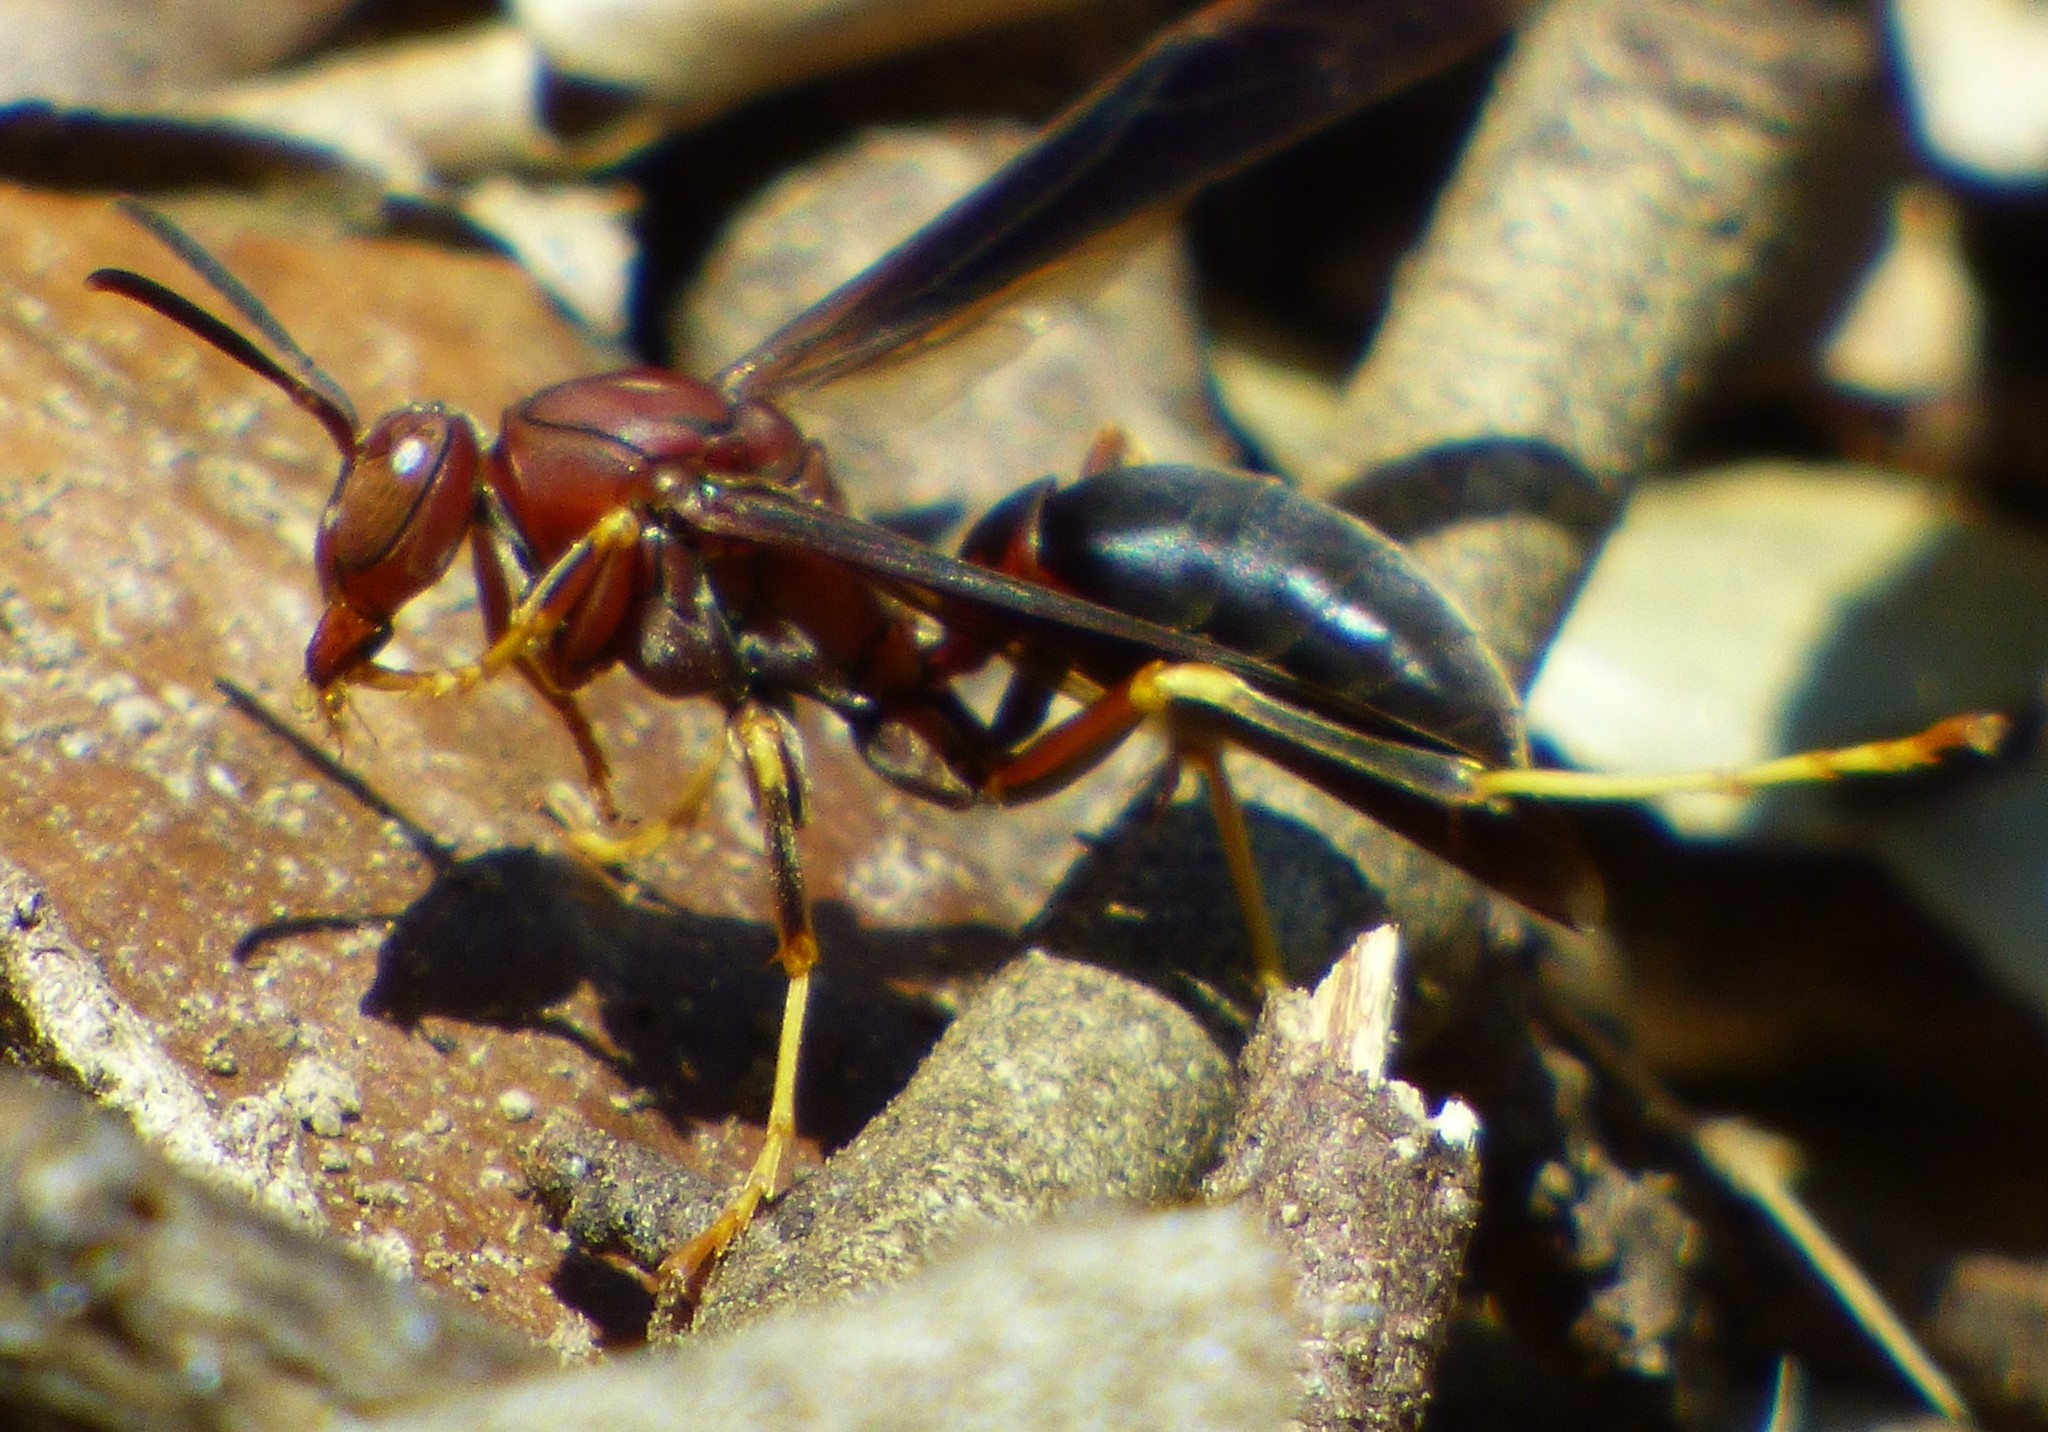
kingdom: Animalia
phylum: Arthropoda
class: Insecta
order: Hymenoptera
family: Eumenidae
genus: Polistes
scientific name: Polistes metricus
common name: Metric paper wasp
